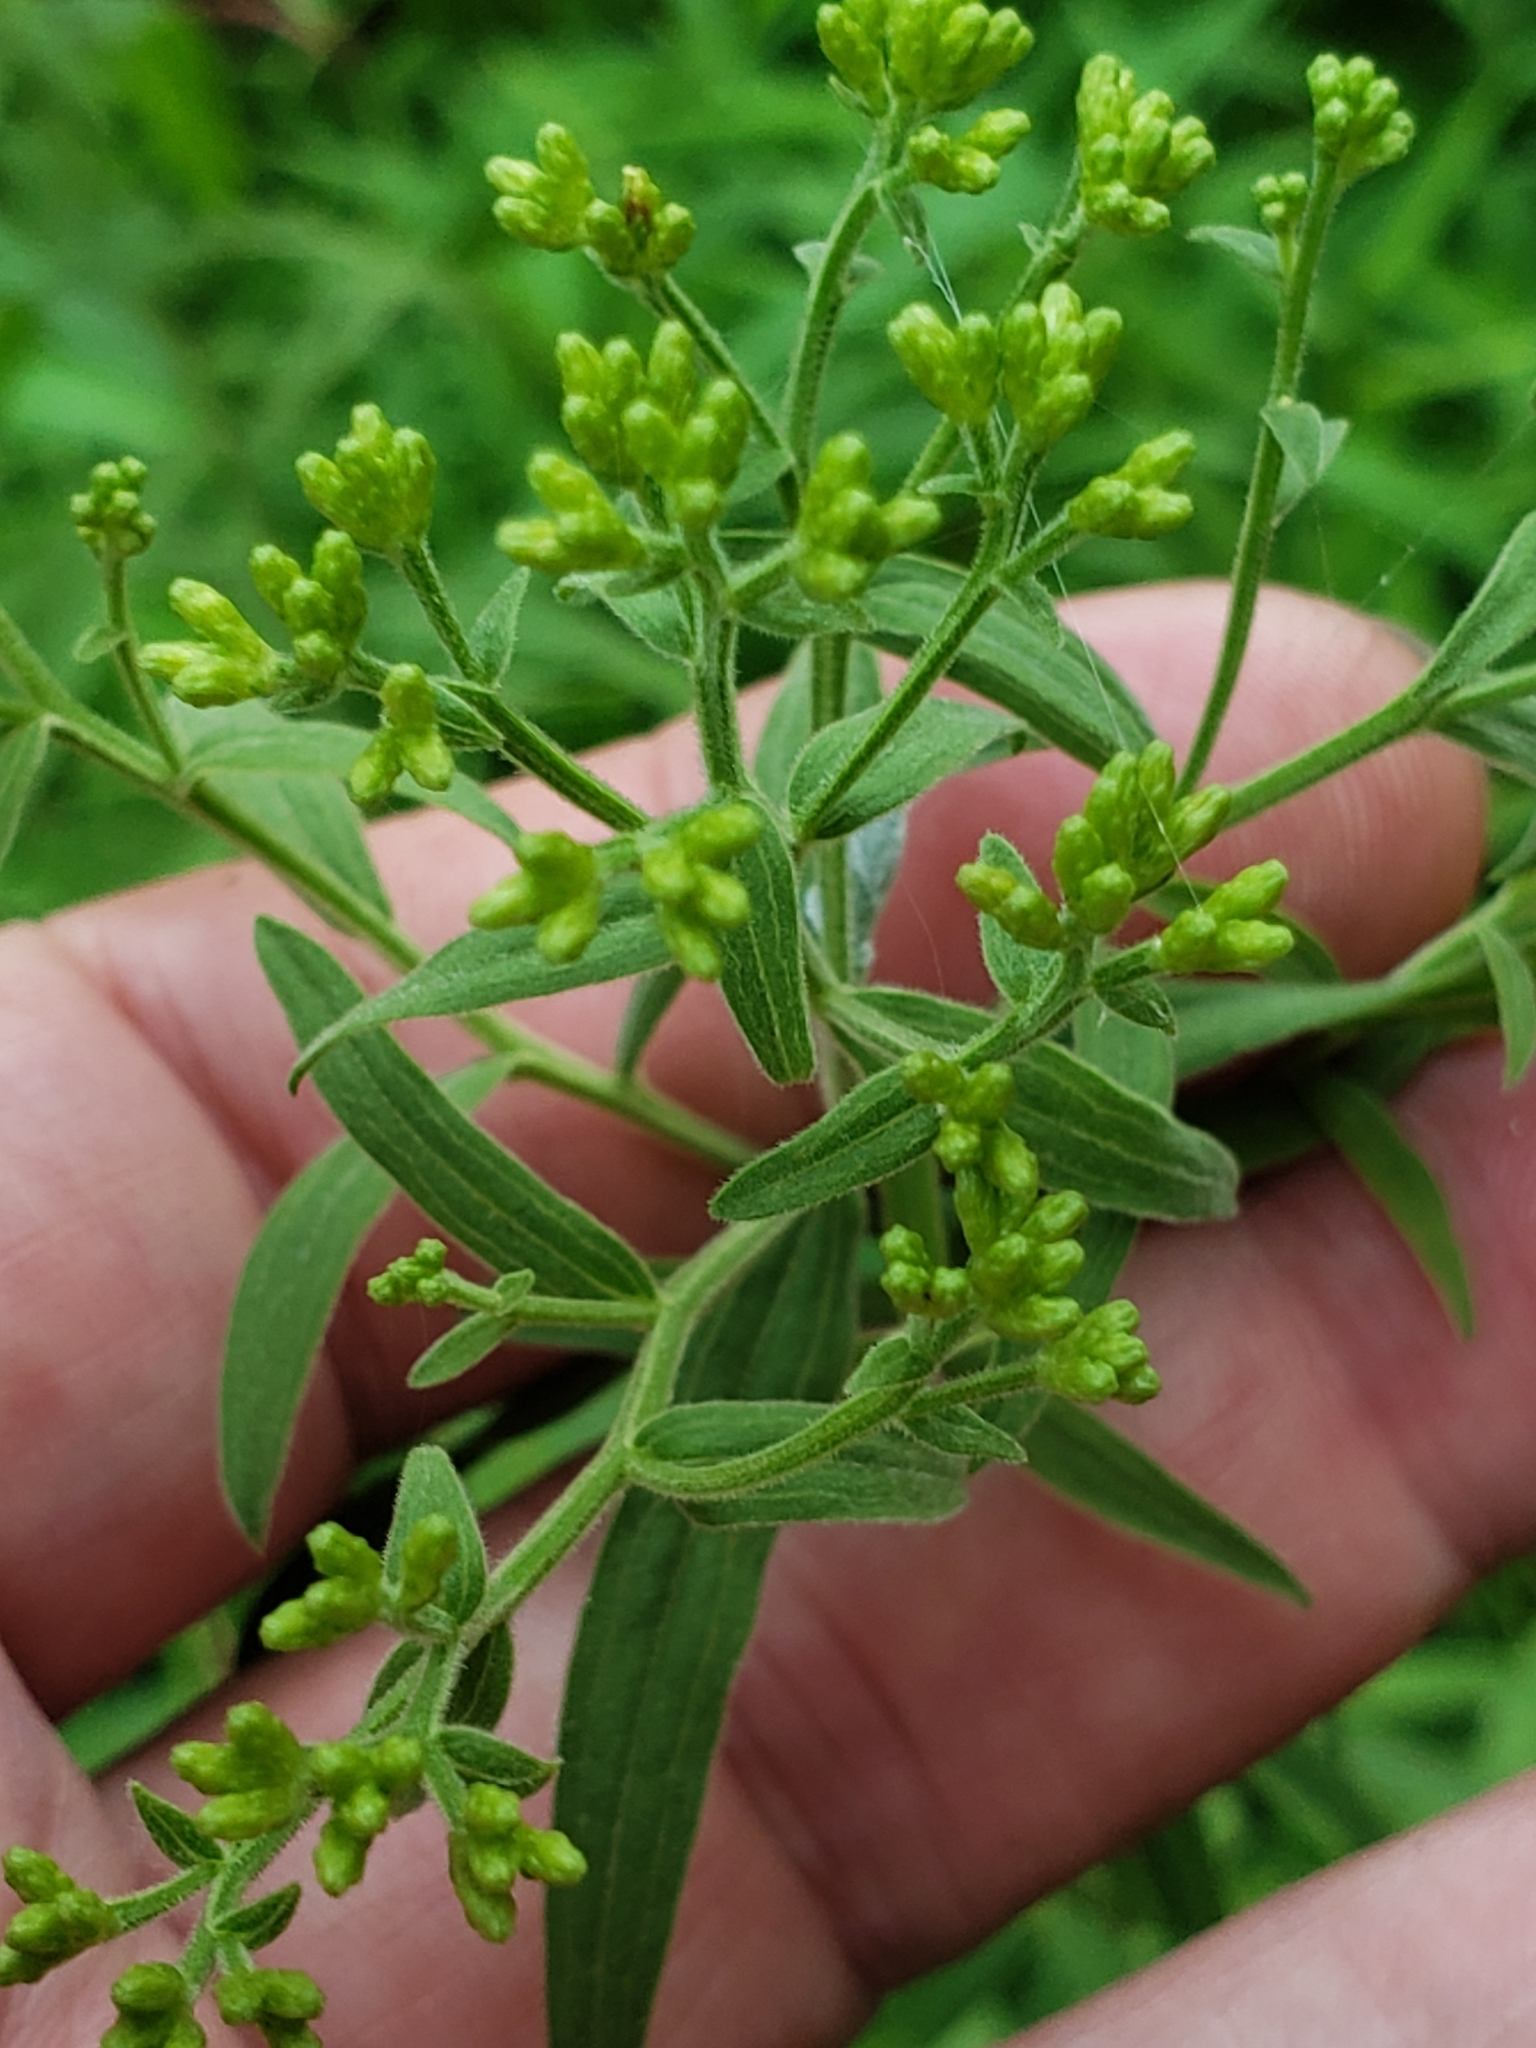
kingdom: Animalia
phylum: Arthropoda
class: Insecta
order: Diptera
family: Cecidomyiidae
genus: Asteromyia
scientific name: Asteromyia euthamiae
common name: Euthamia leaf gall midge
